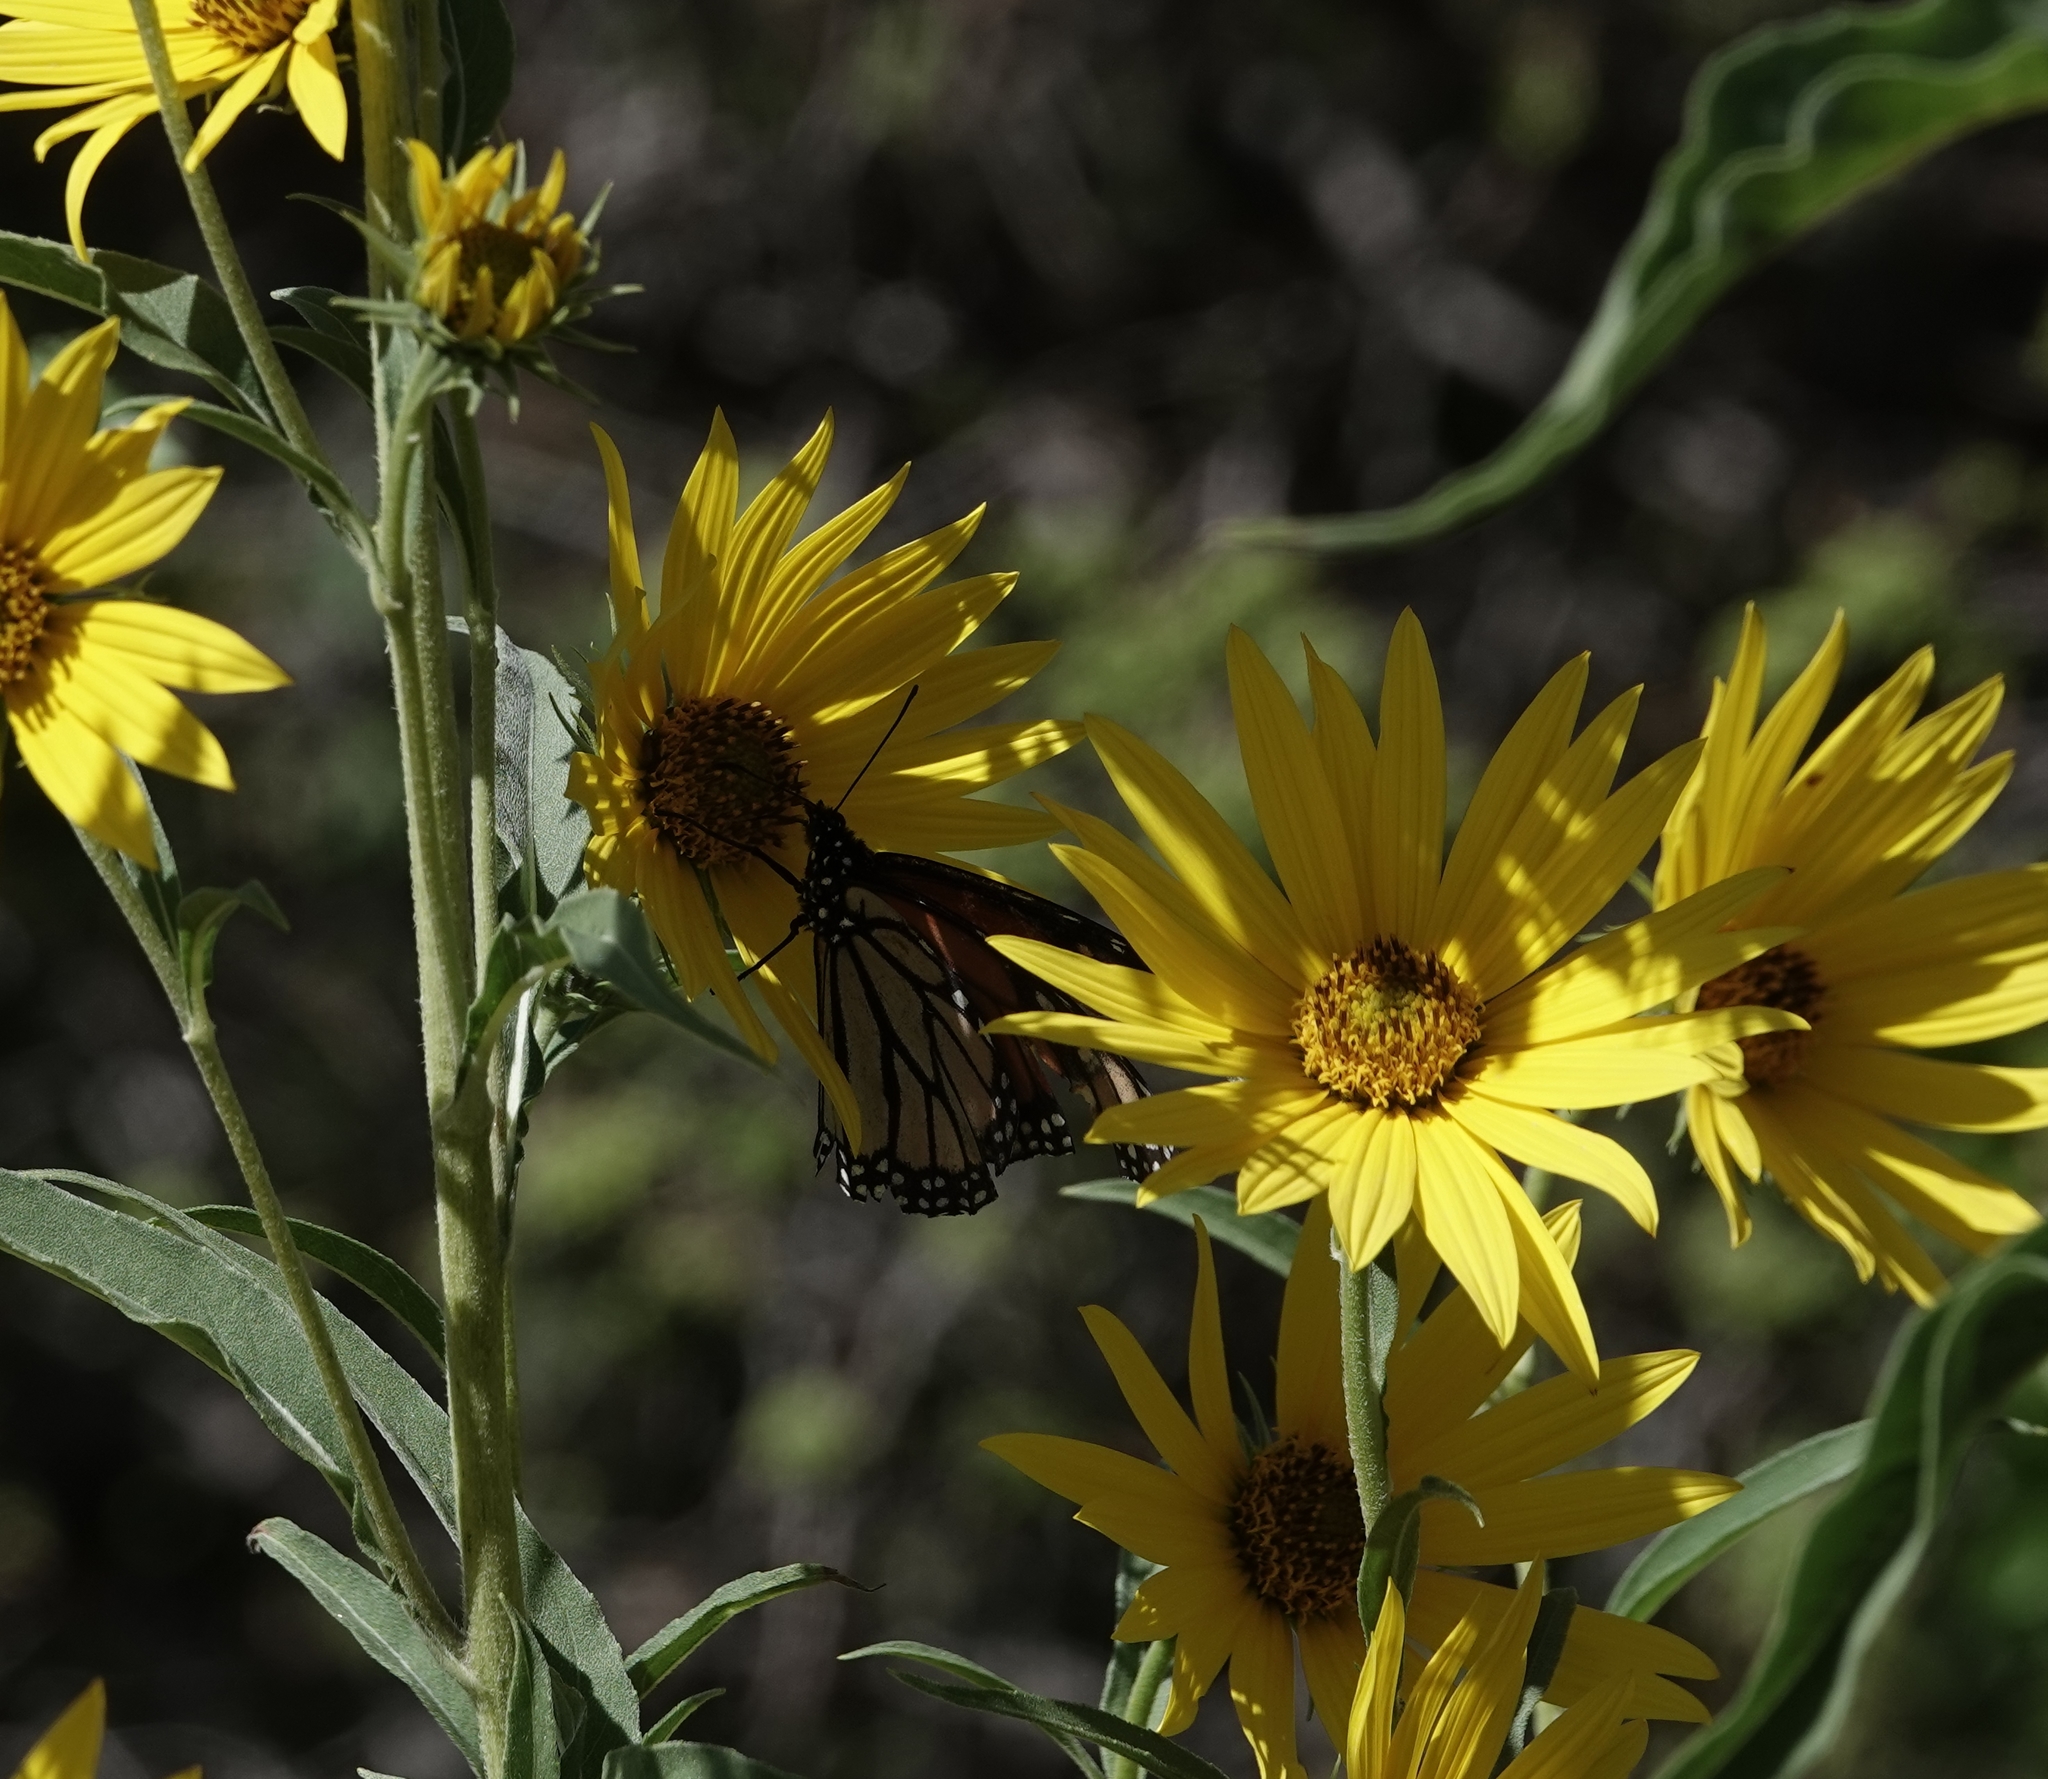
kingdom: Animalia
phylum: Arthropoda
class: Insecta
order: Lepidoptera
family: Nymphalidae
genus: Danaus
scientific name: Danaus plexippus
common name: Monarch
